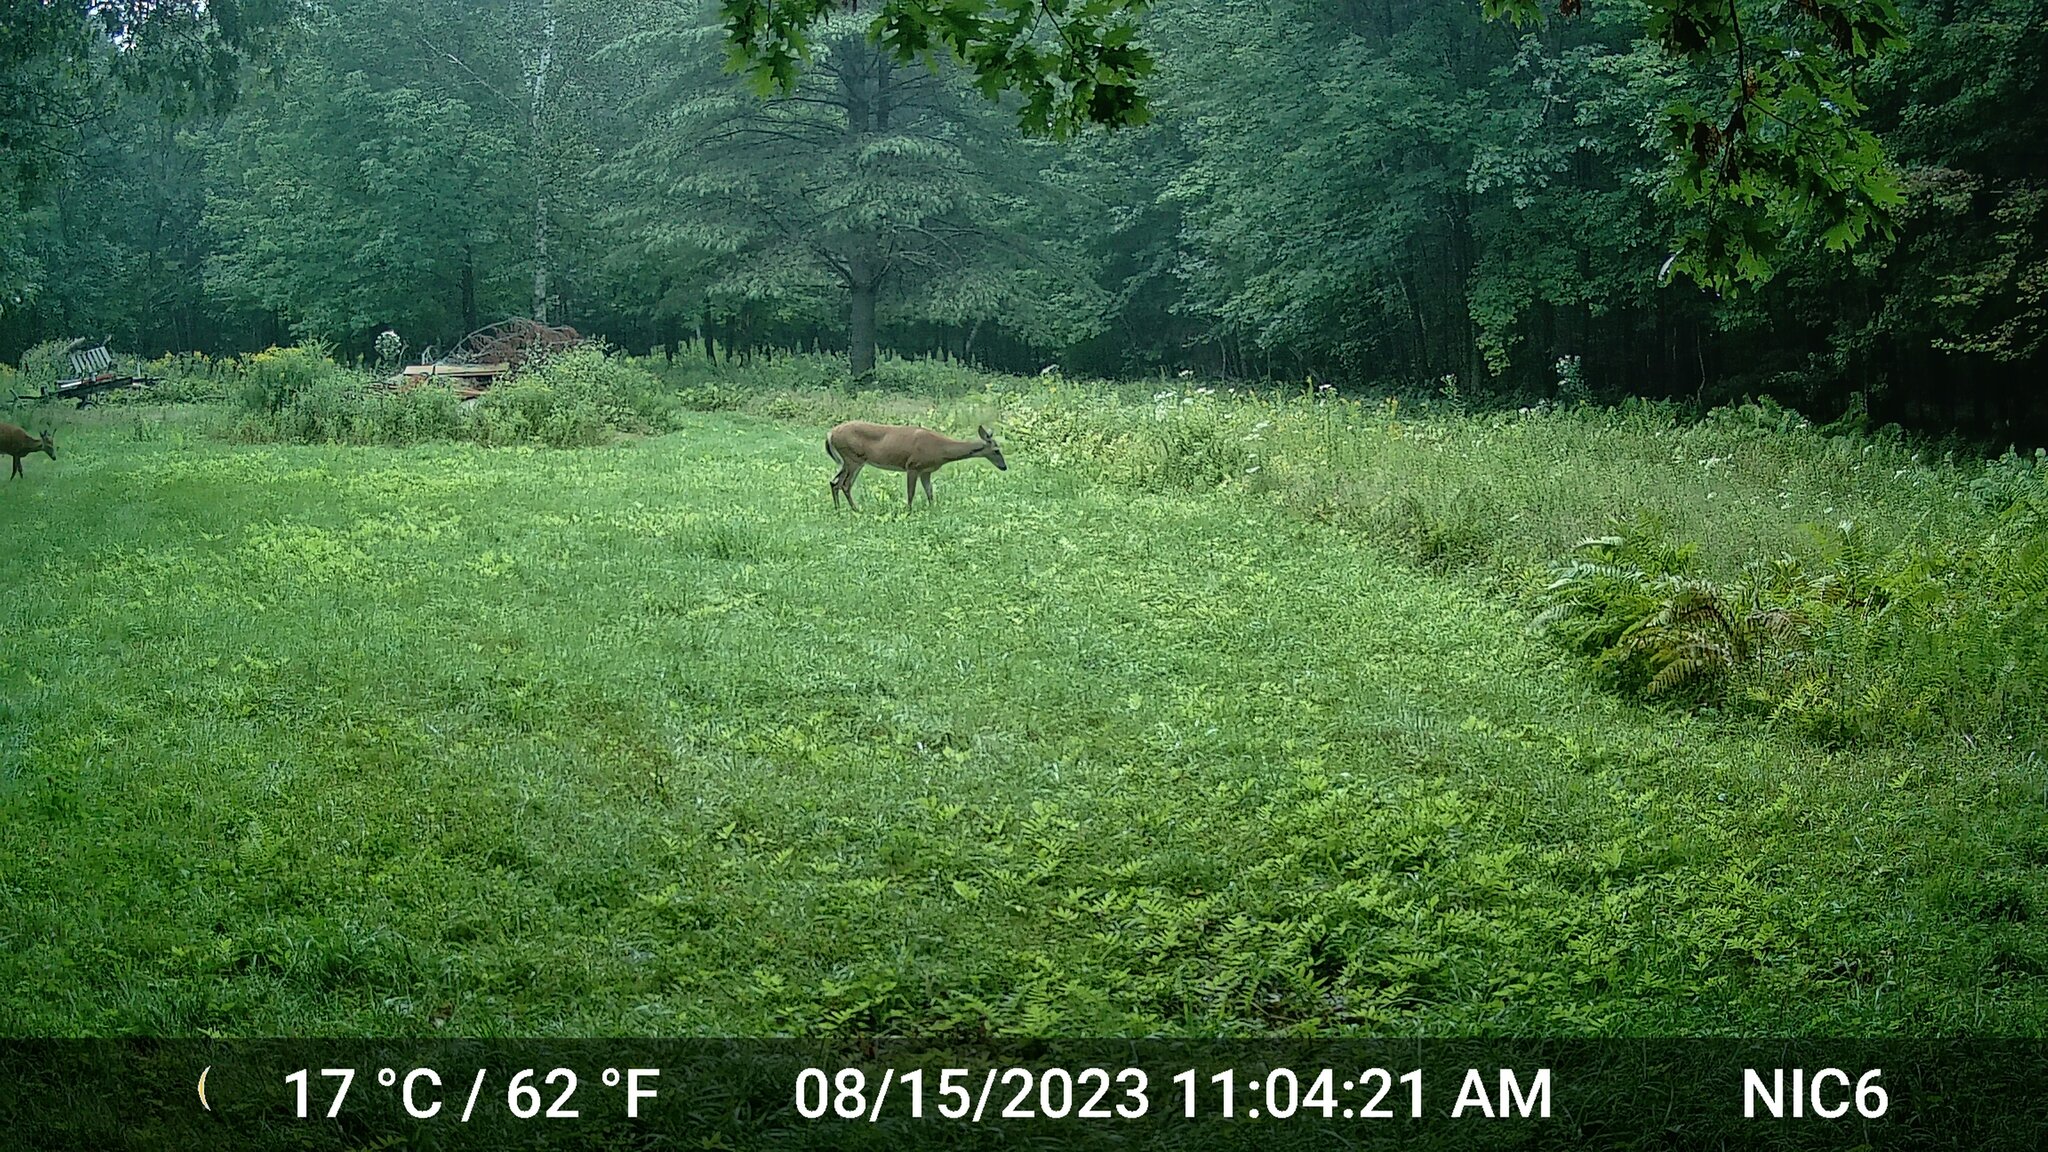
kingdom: Animalia
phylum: Chordata
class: Mammalia
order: Artiodactyla
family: Cervidae
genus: Odocoileus
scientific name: Odocoileus virginianus
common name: White-tailed deer
